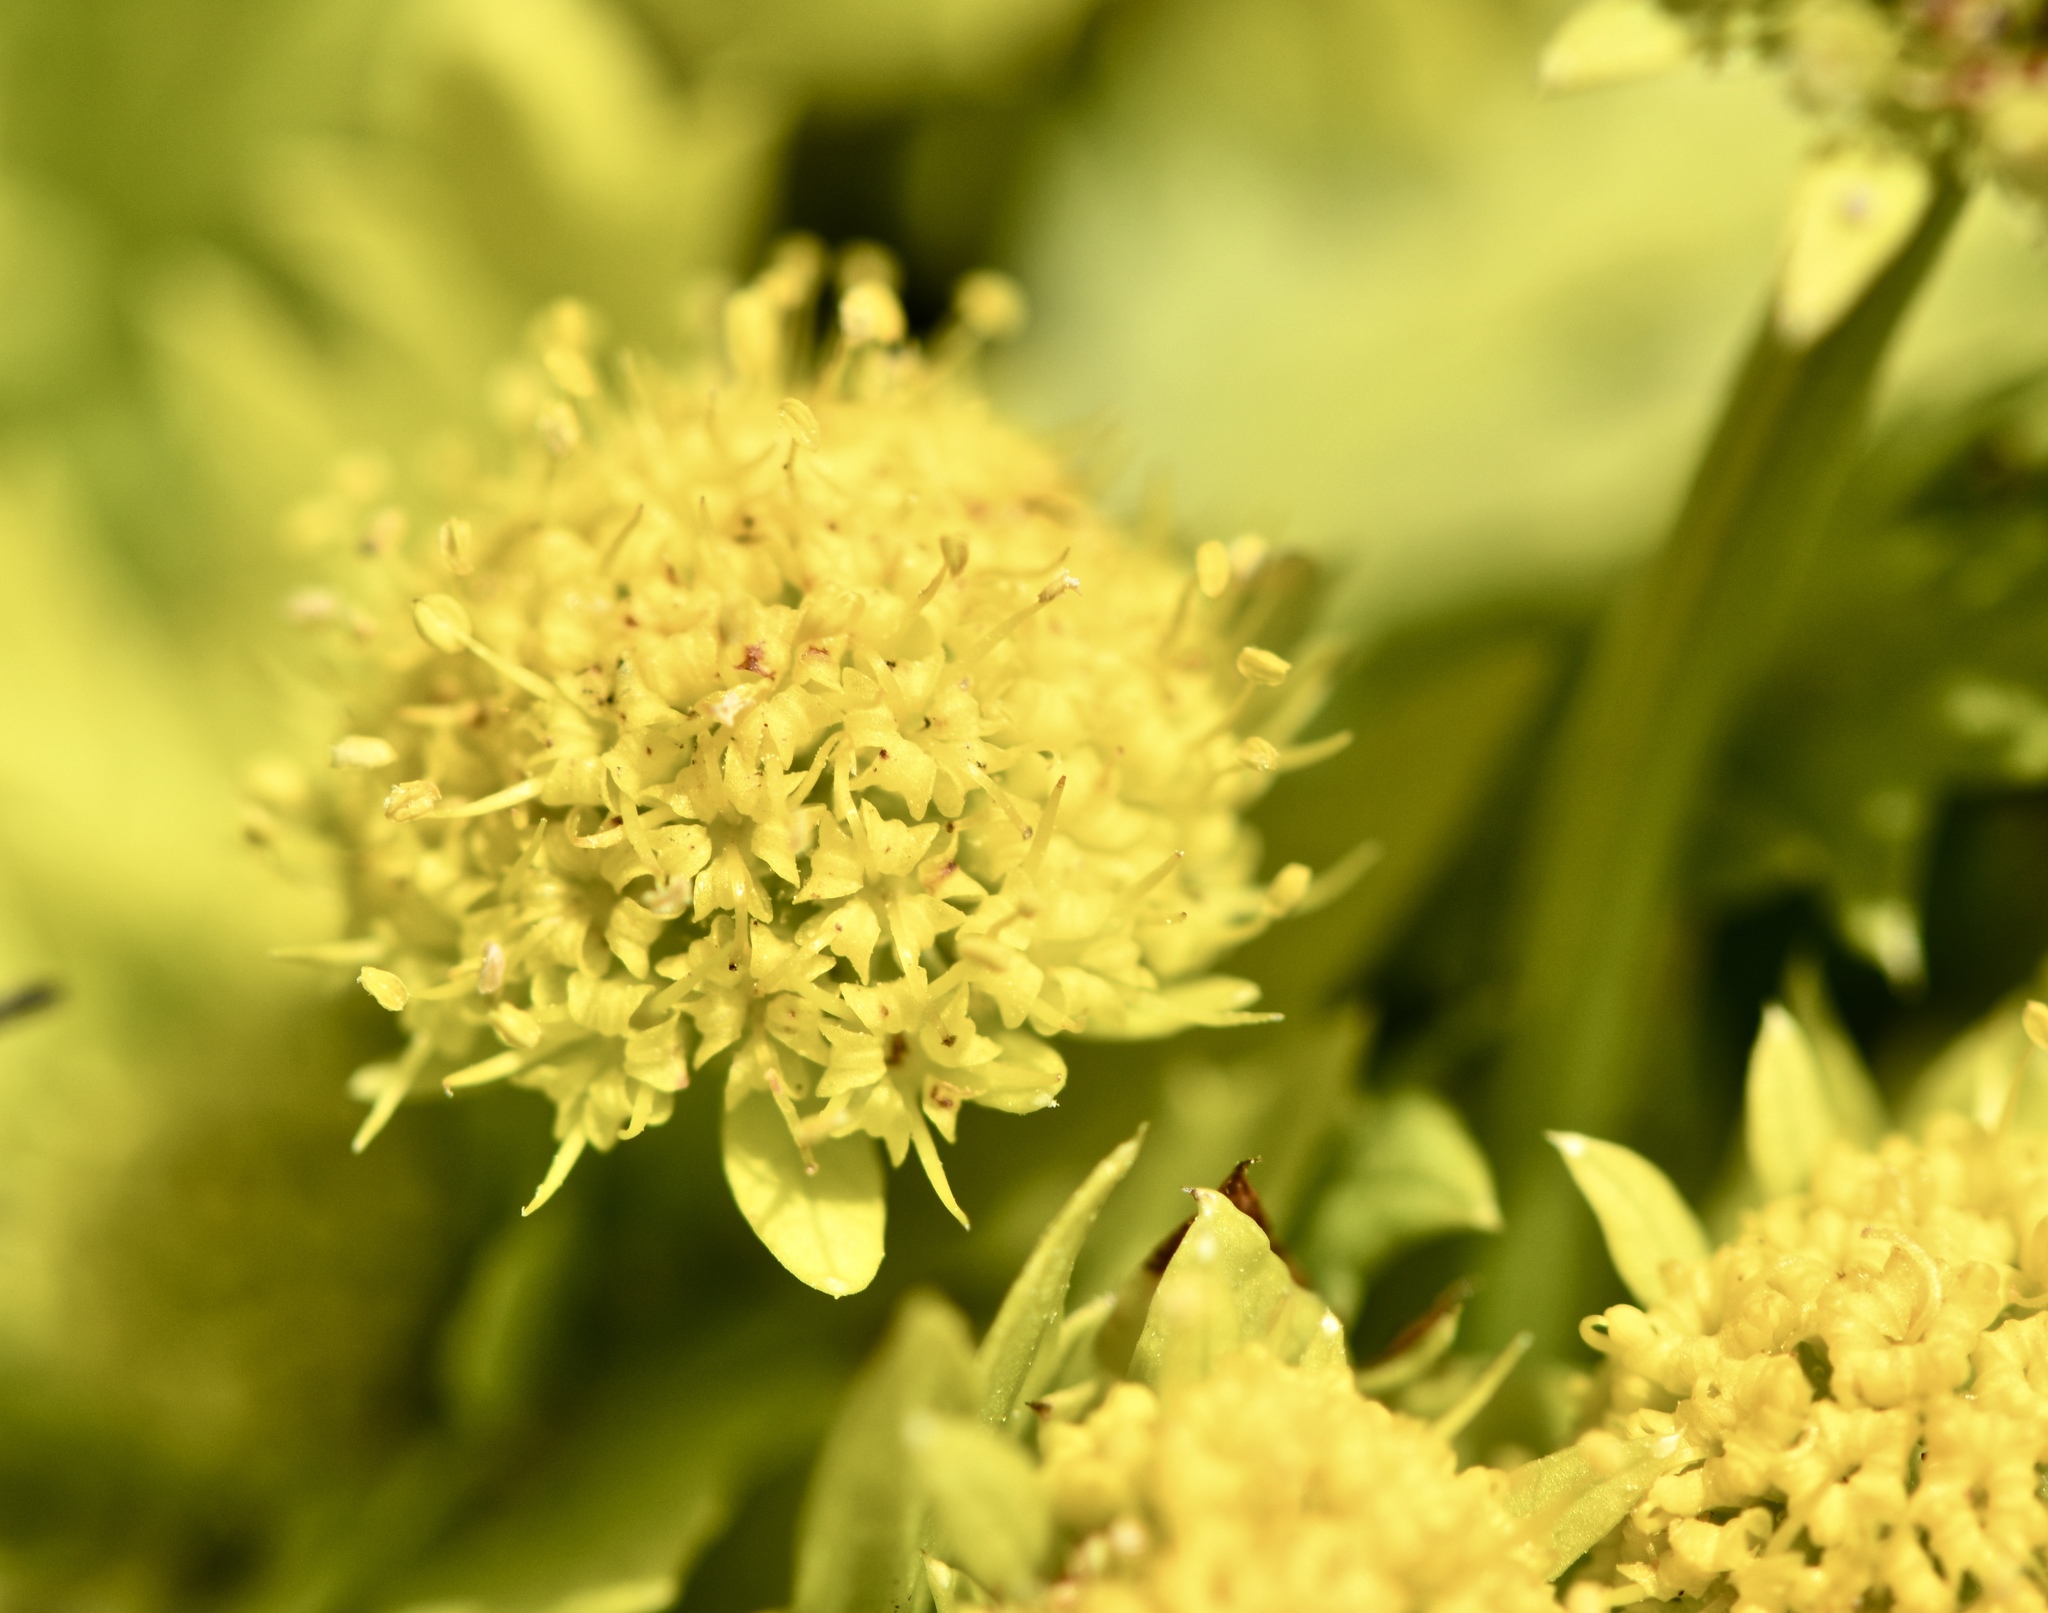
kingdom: Plantae
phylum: Tracheophyta
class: Magnoliopsida
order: Apiales
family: Apiaceae
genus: Sanicula
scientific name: Sanicula arctopoides
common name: Footsteps-of-spring
